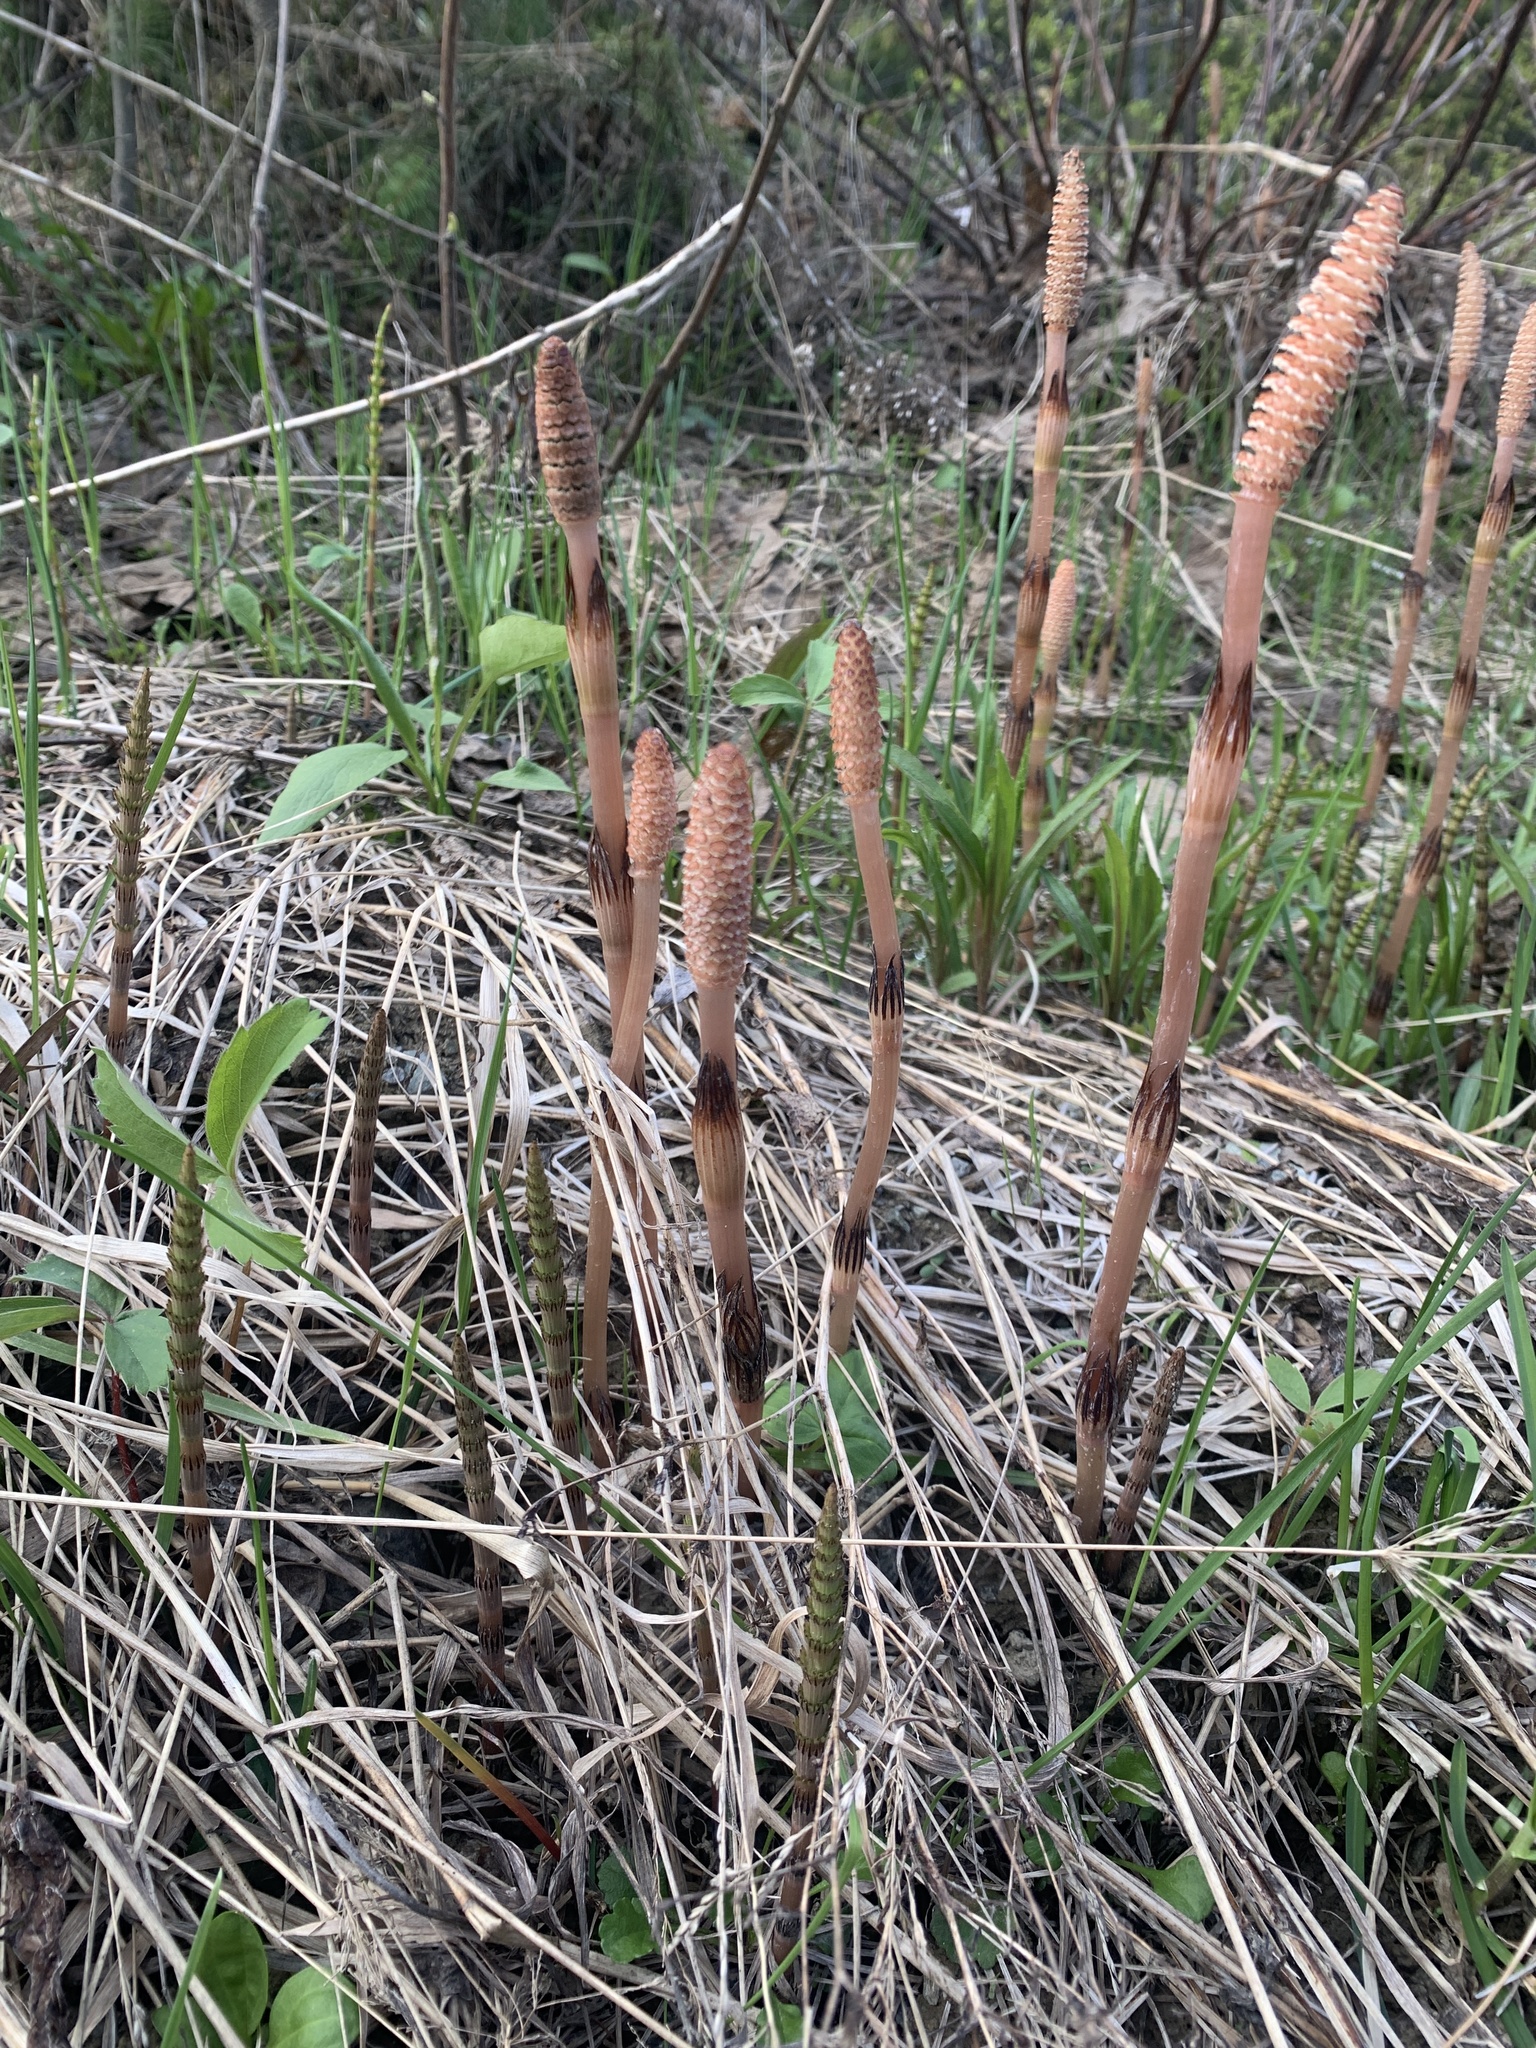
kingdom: Plantae
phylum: Tracheophyta
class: Polypodiopsida
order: Equisetales
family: Equisetaceae
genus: Equisetum
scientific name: Equisetum arvense
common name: Field horsetail
